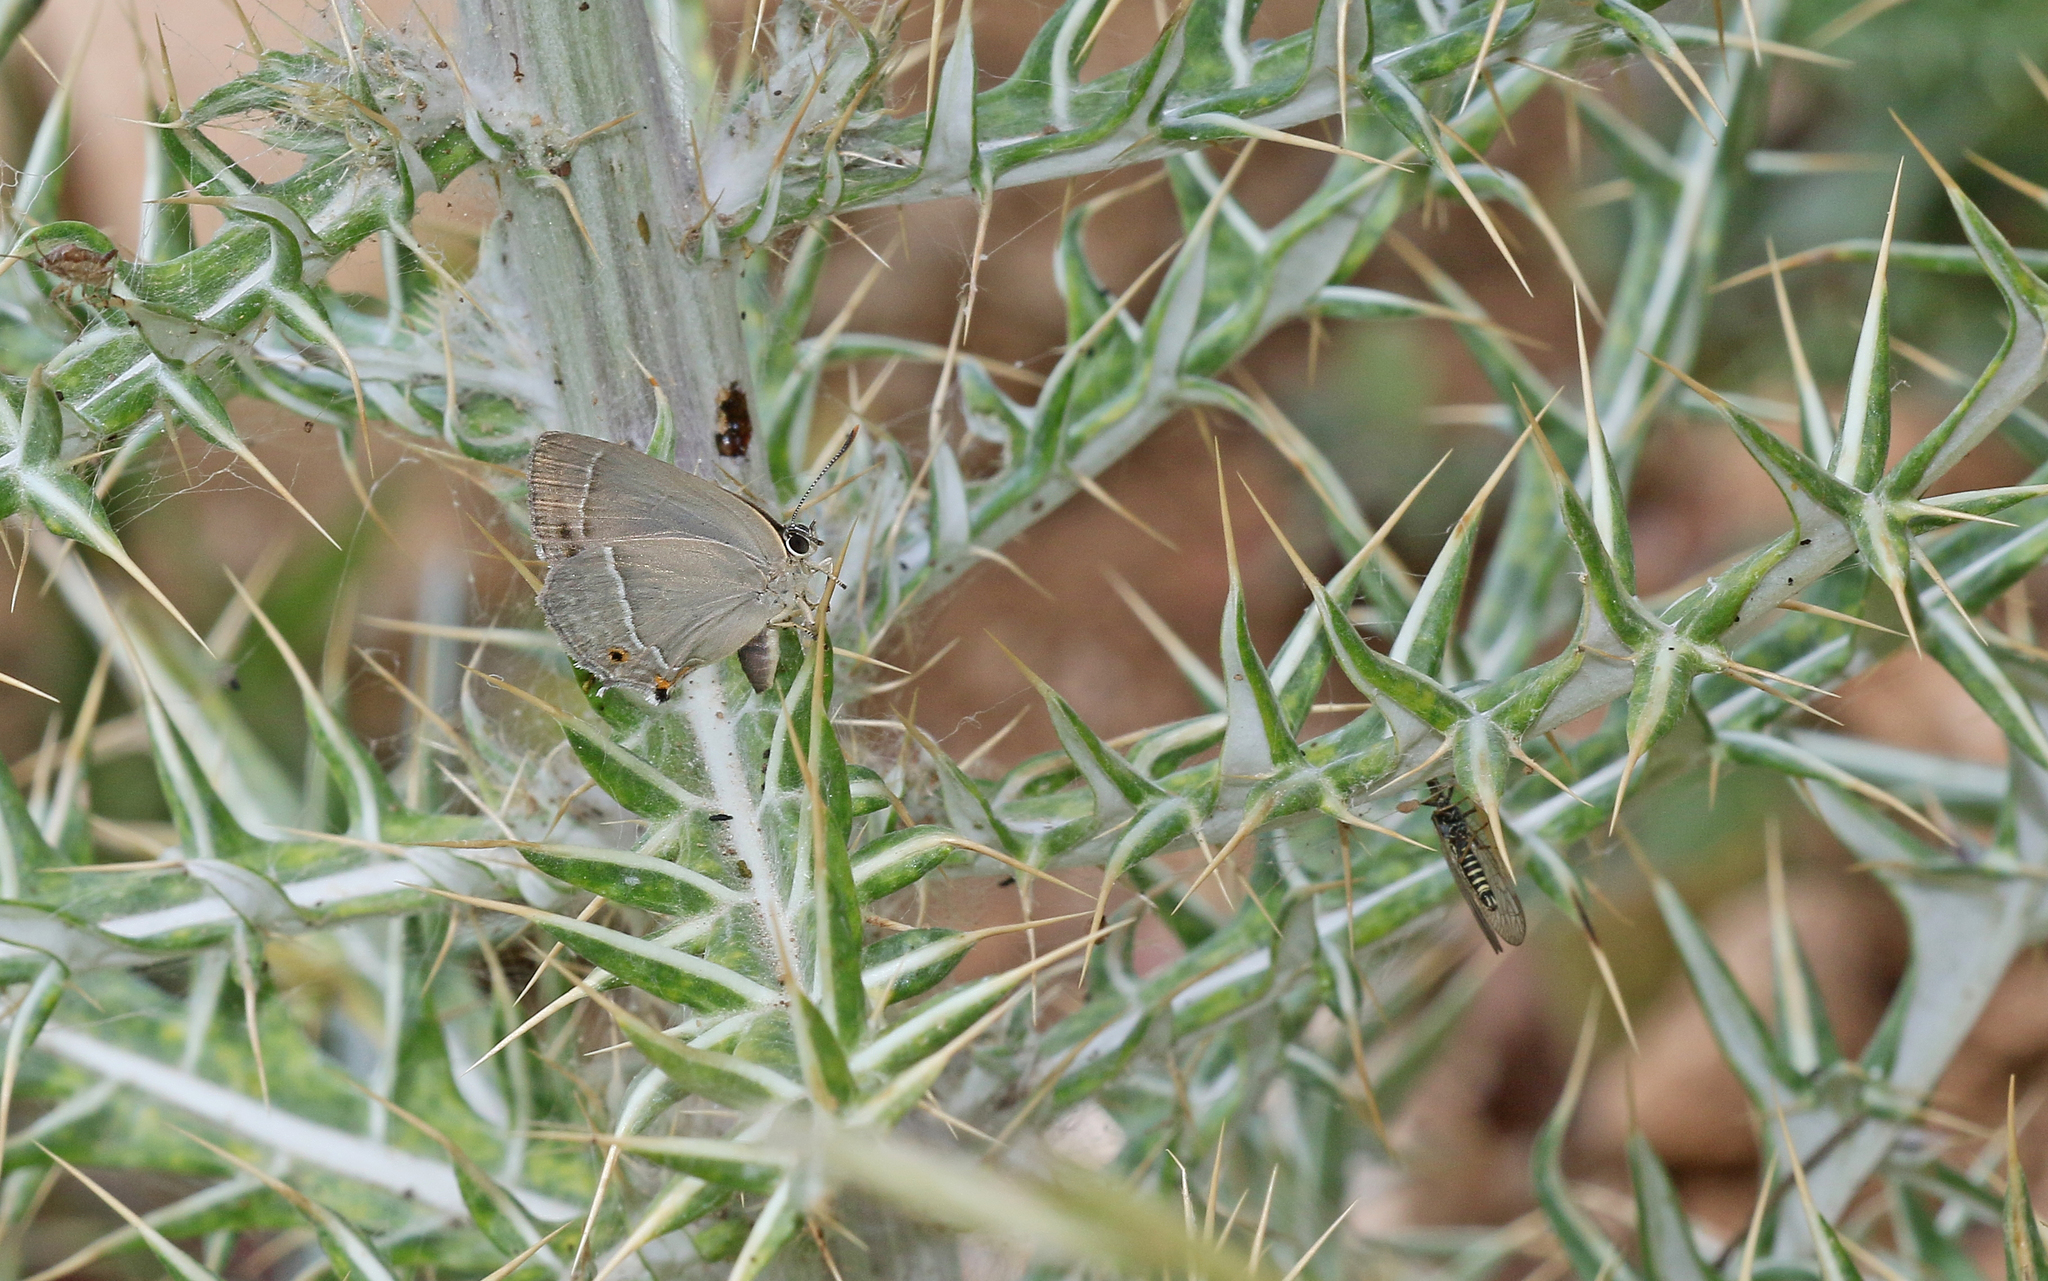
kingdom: Animalia
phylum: Arthropoda
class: Insecta
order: Lepidoptera
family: Lycaenidae
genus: Quercusia
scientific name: Quercusia quercus
